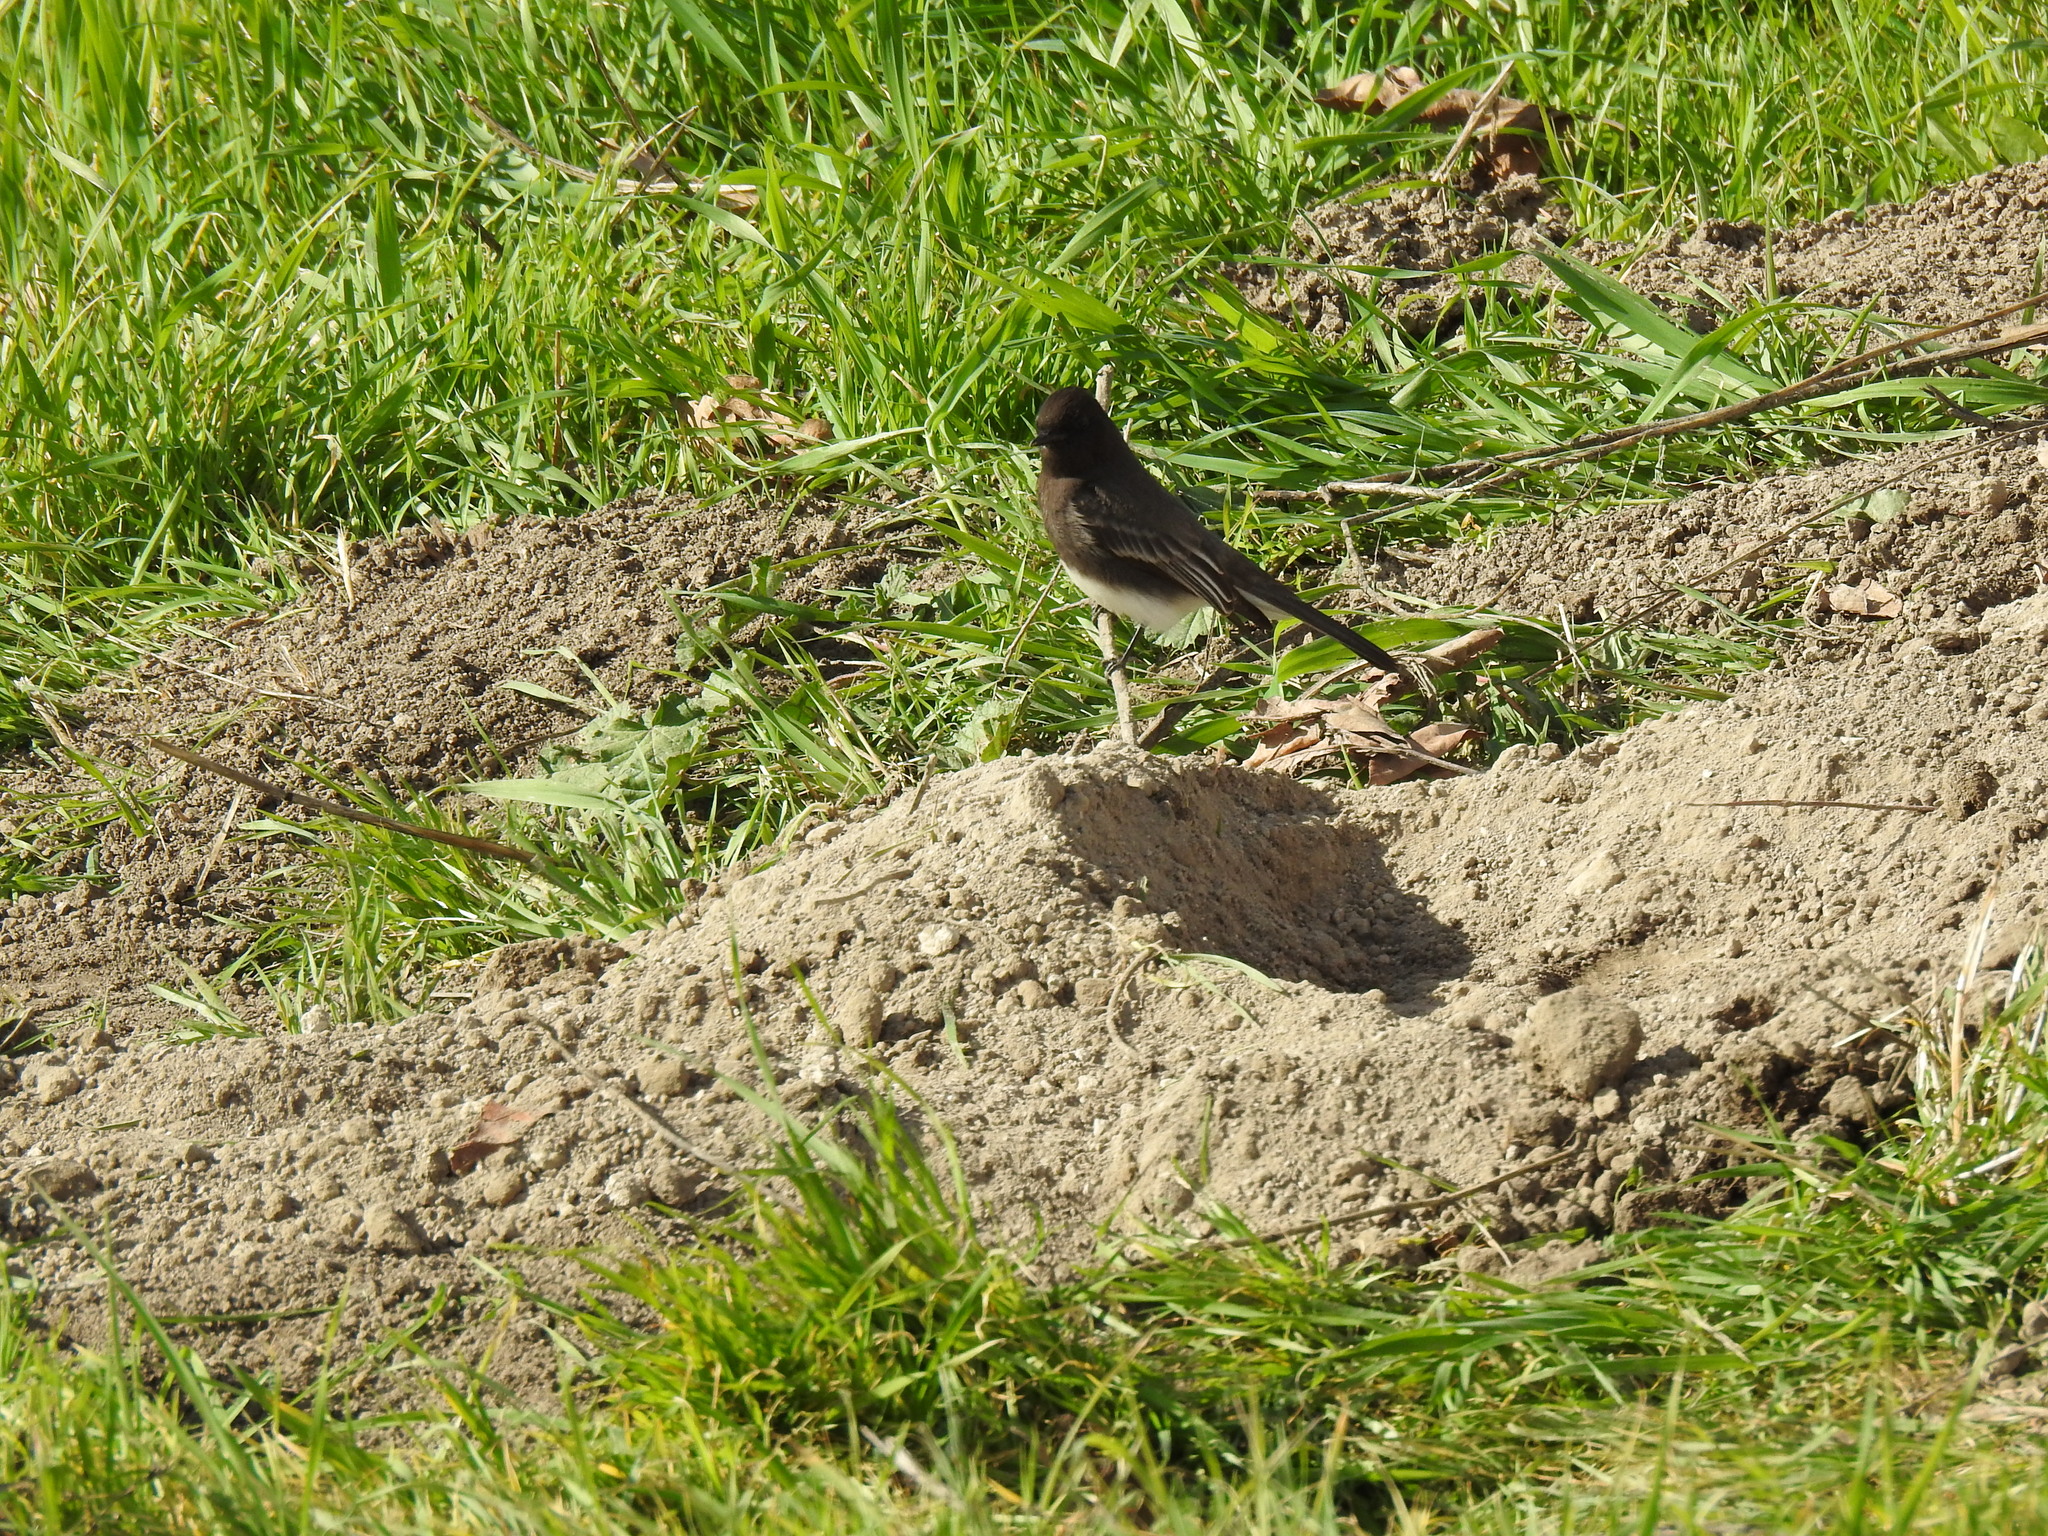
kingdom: Animalia
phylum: Chordata
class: Aves
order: Passeriformes
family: Tyrannidae
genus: Sayornis
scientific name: Sayornis nigricans
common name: Black phoebe
